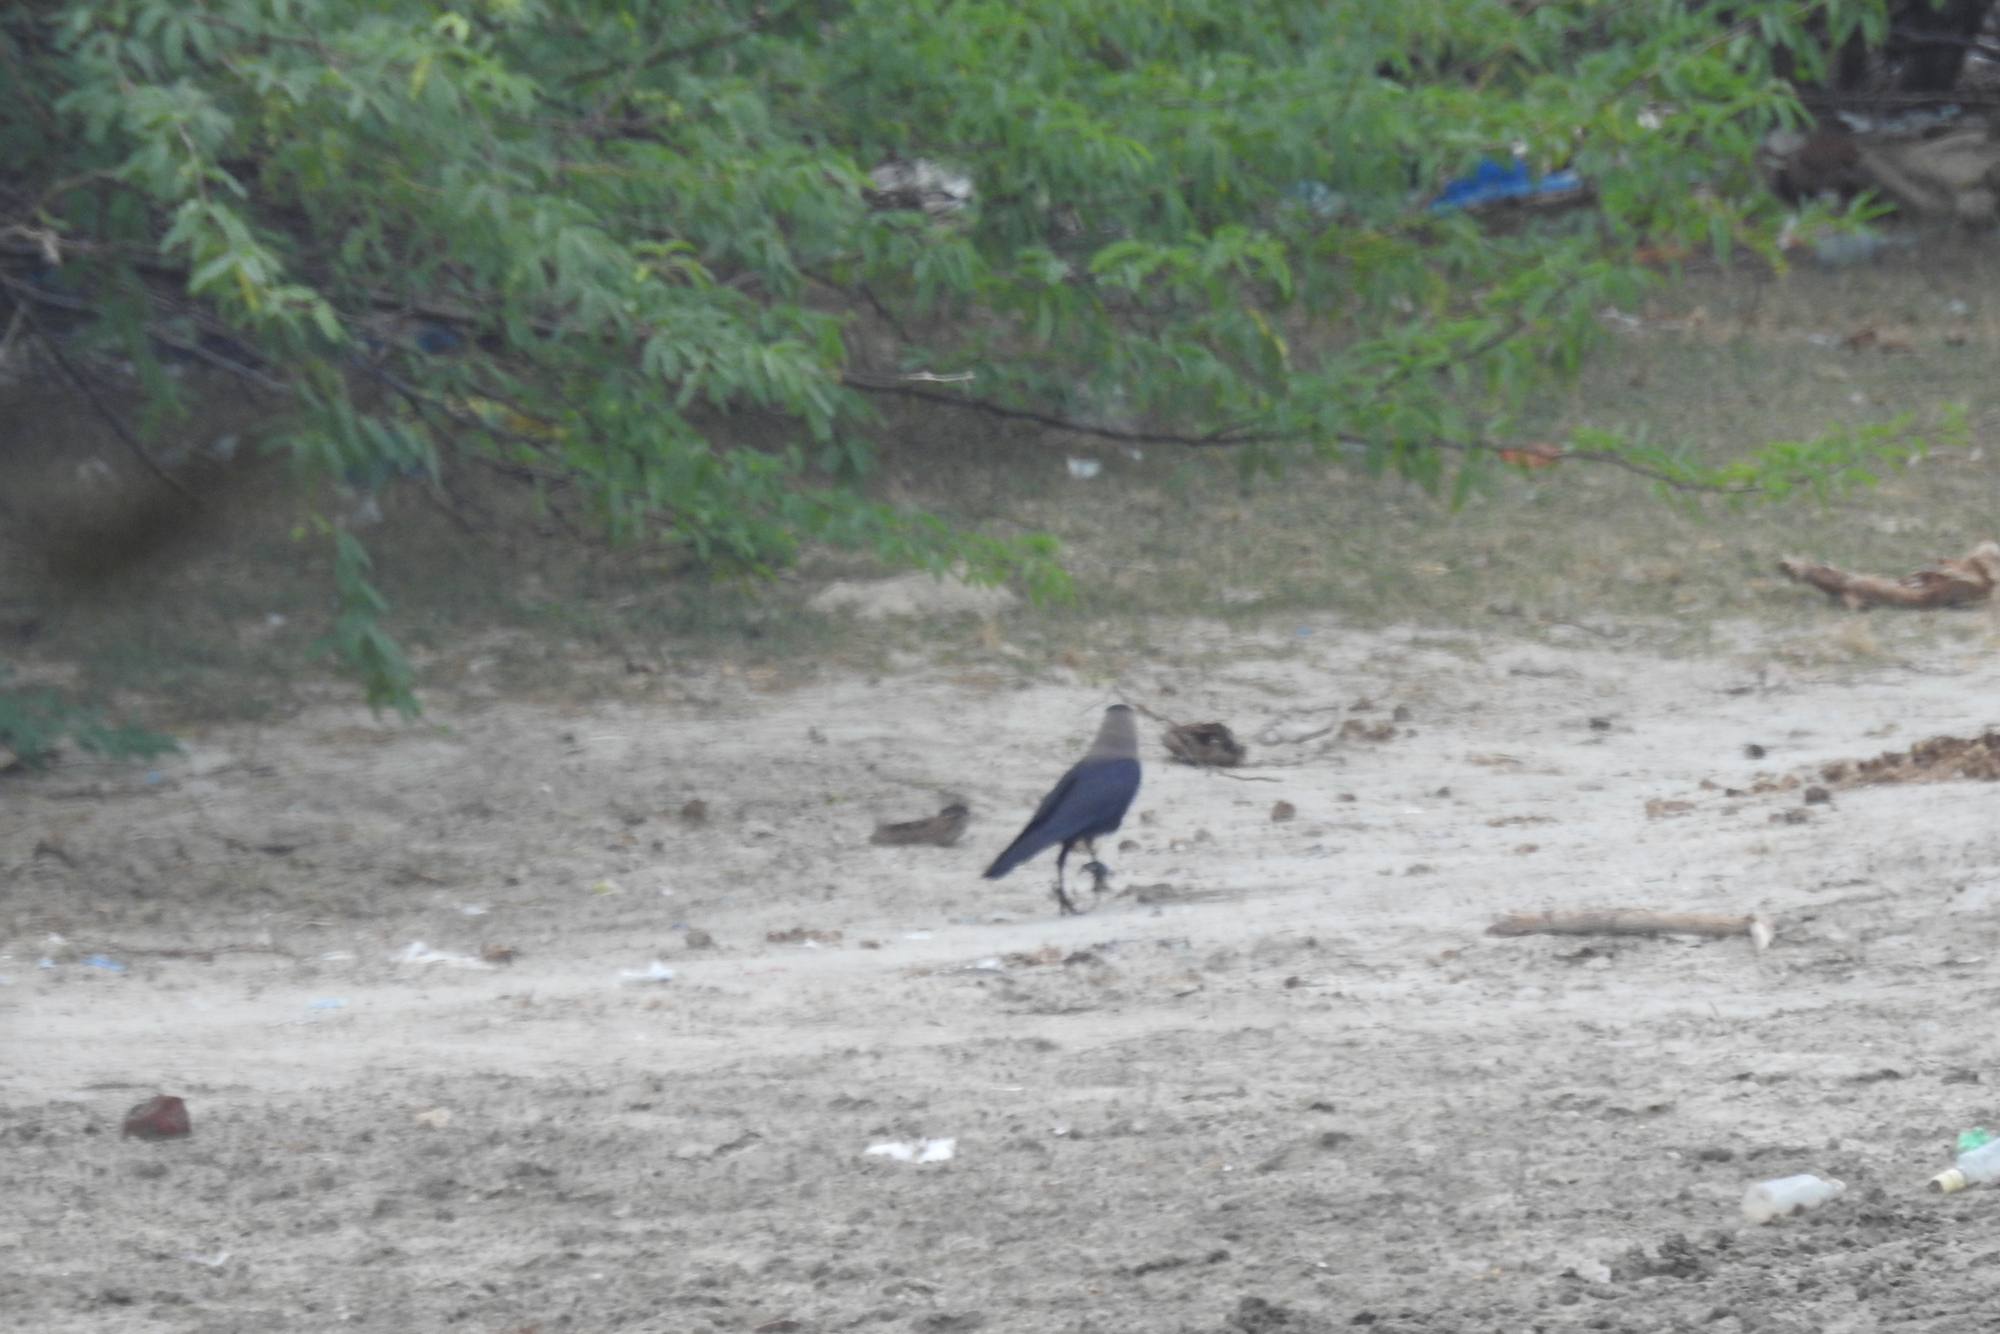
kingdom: Animalia
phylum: Chordata
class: Aves
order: Passeriformes
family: Corvidae
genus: Corvus
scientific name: Corvus splendens
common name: House crow
